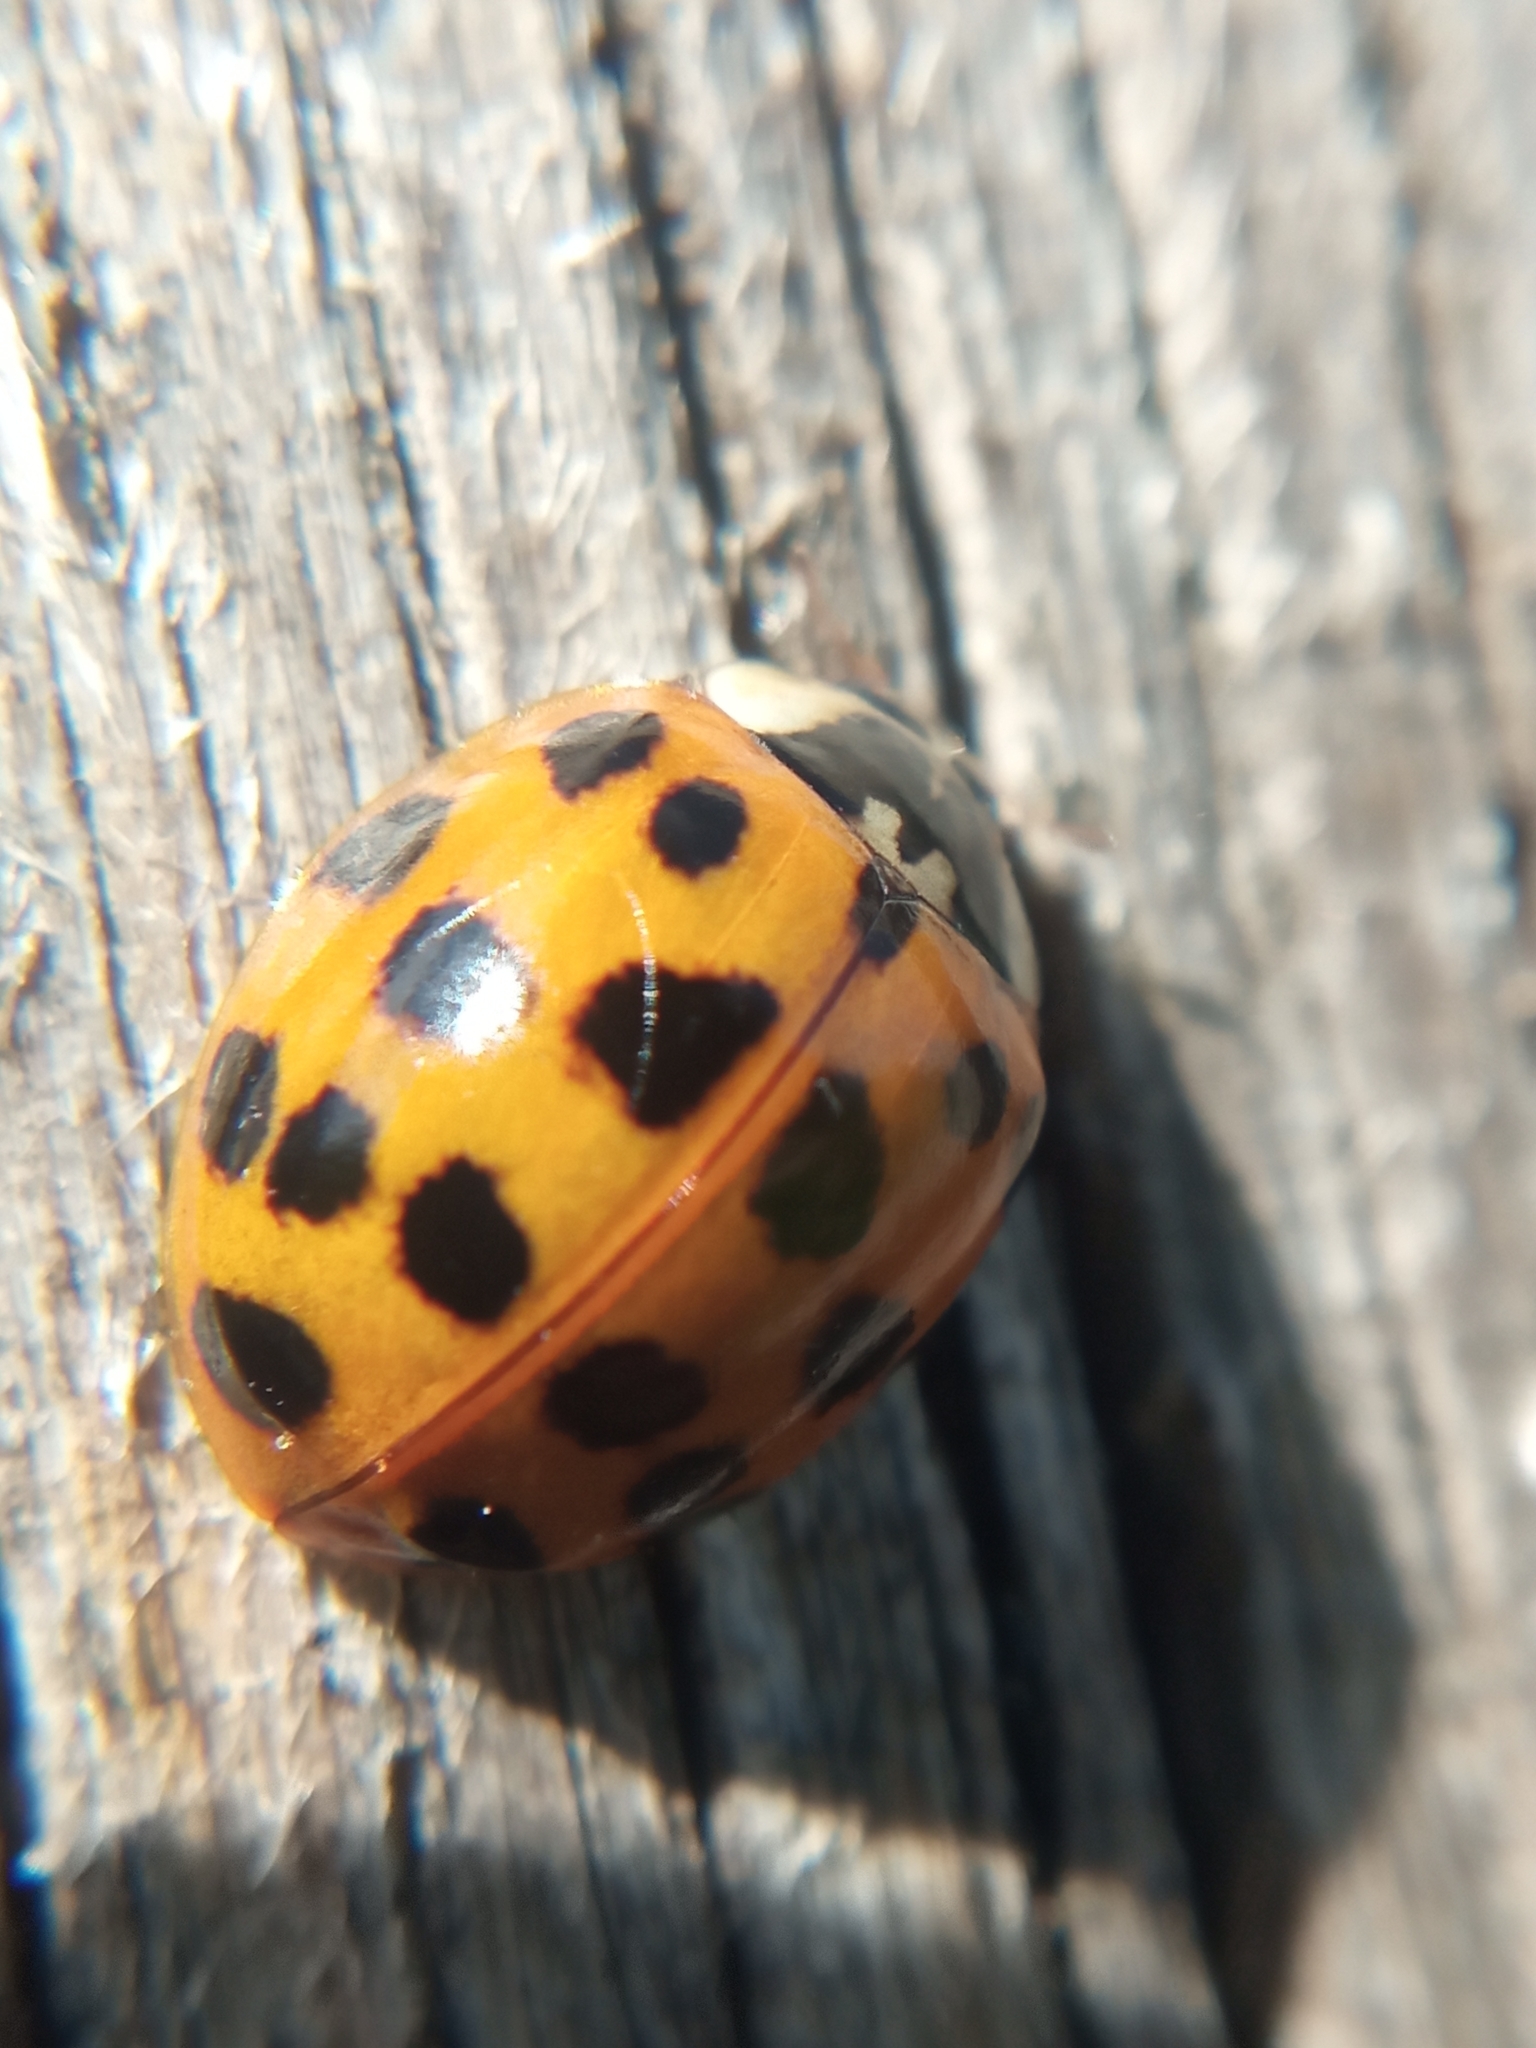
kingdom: Animalia
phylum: Arthropoda
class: Insecta
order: Coleoptera
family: Coccinellidae
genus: Harmonia
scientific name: Harmonia axyridis
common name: Harlequin ladybird
